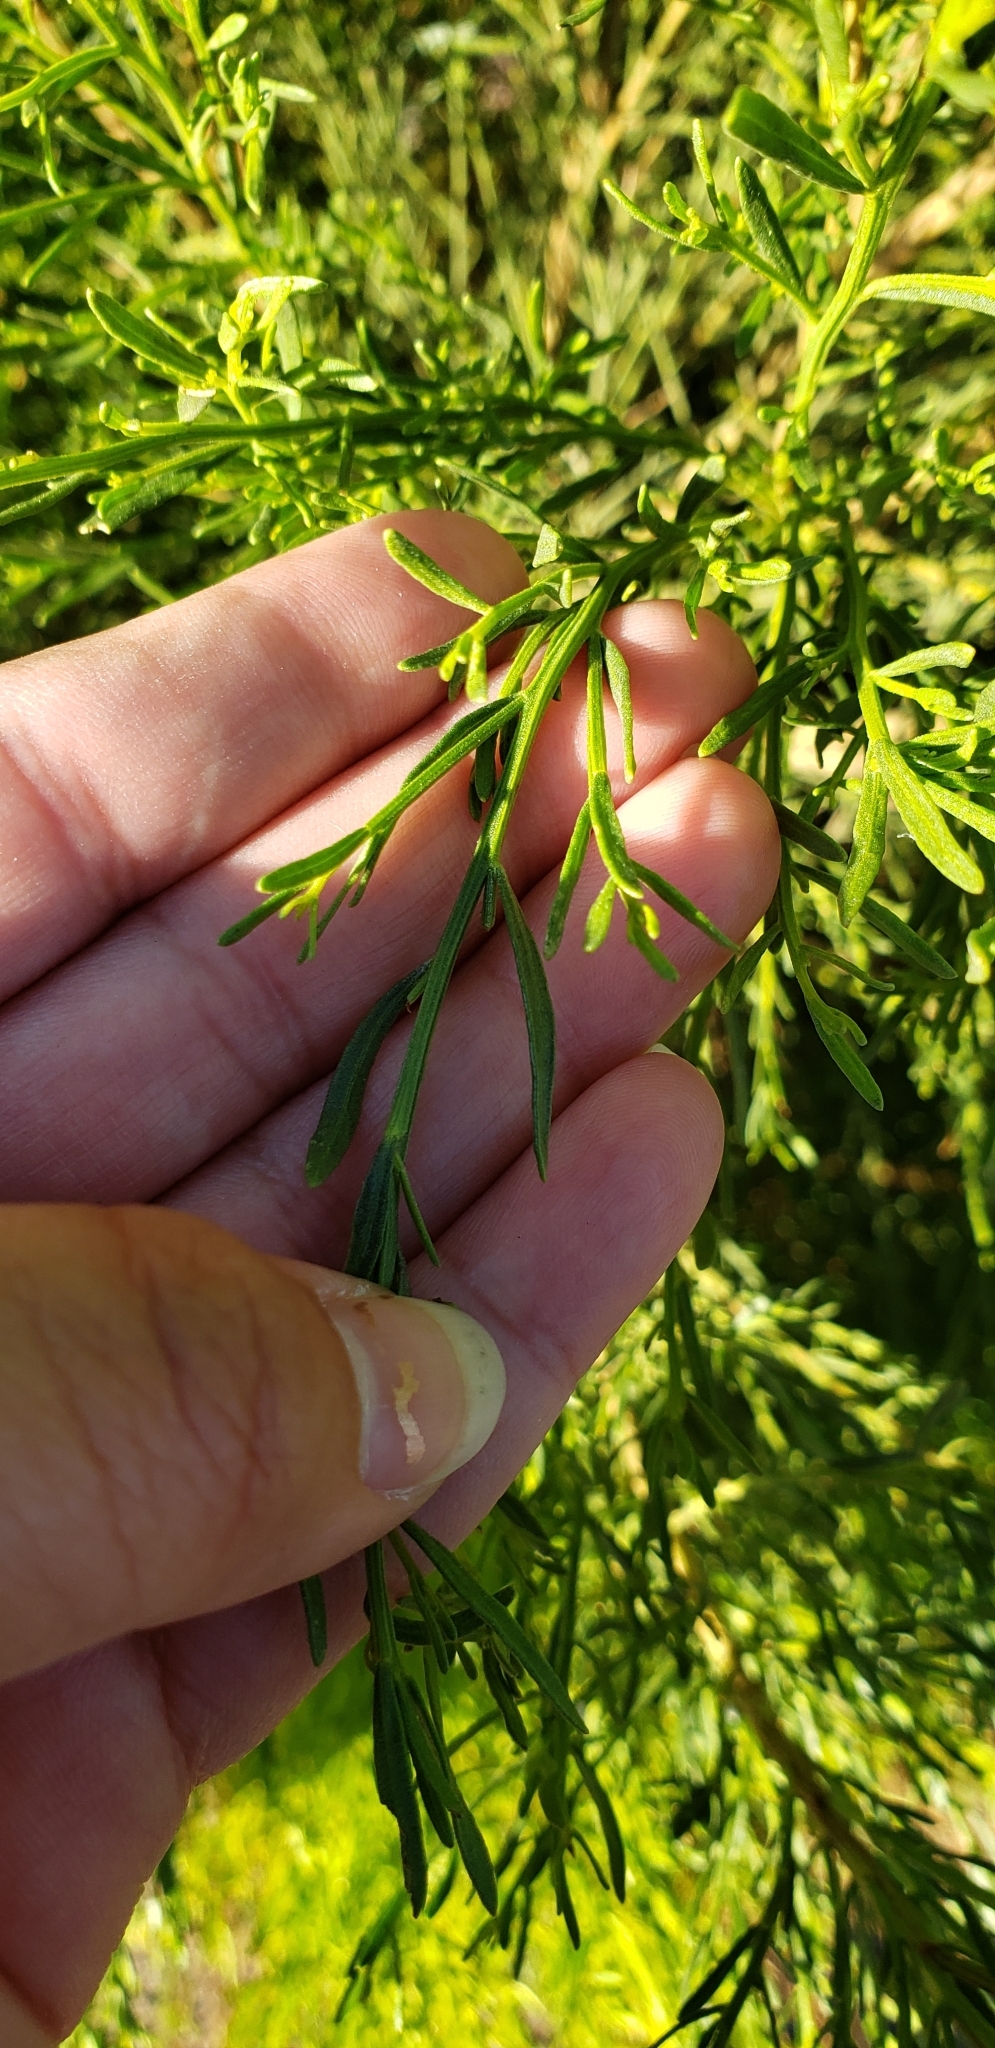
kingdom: Plantae
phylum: Tracheophyta
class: Magnoliopsida
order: Asterales
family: Asteraceae
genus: Baccharis
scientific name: Baccharis pilularis
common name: Coyotebrush
